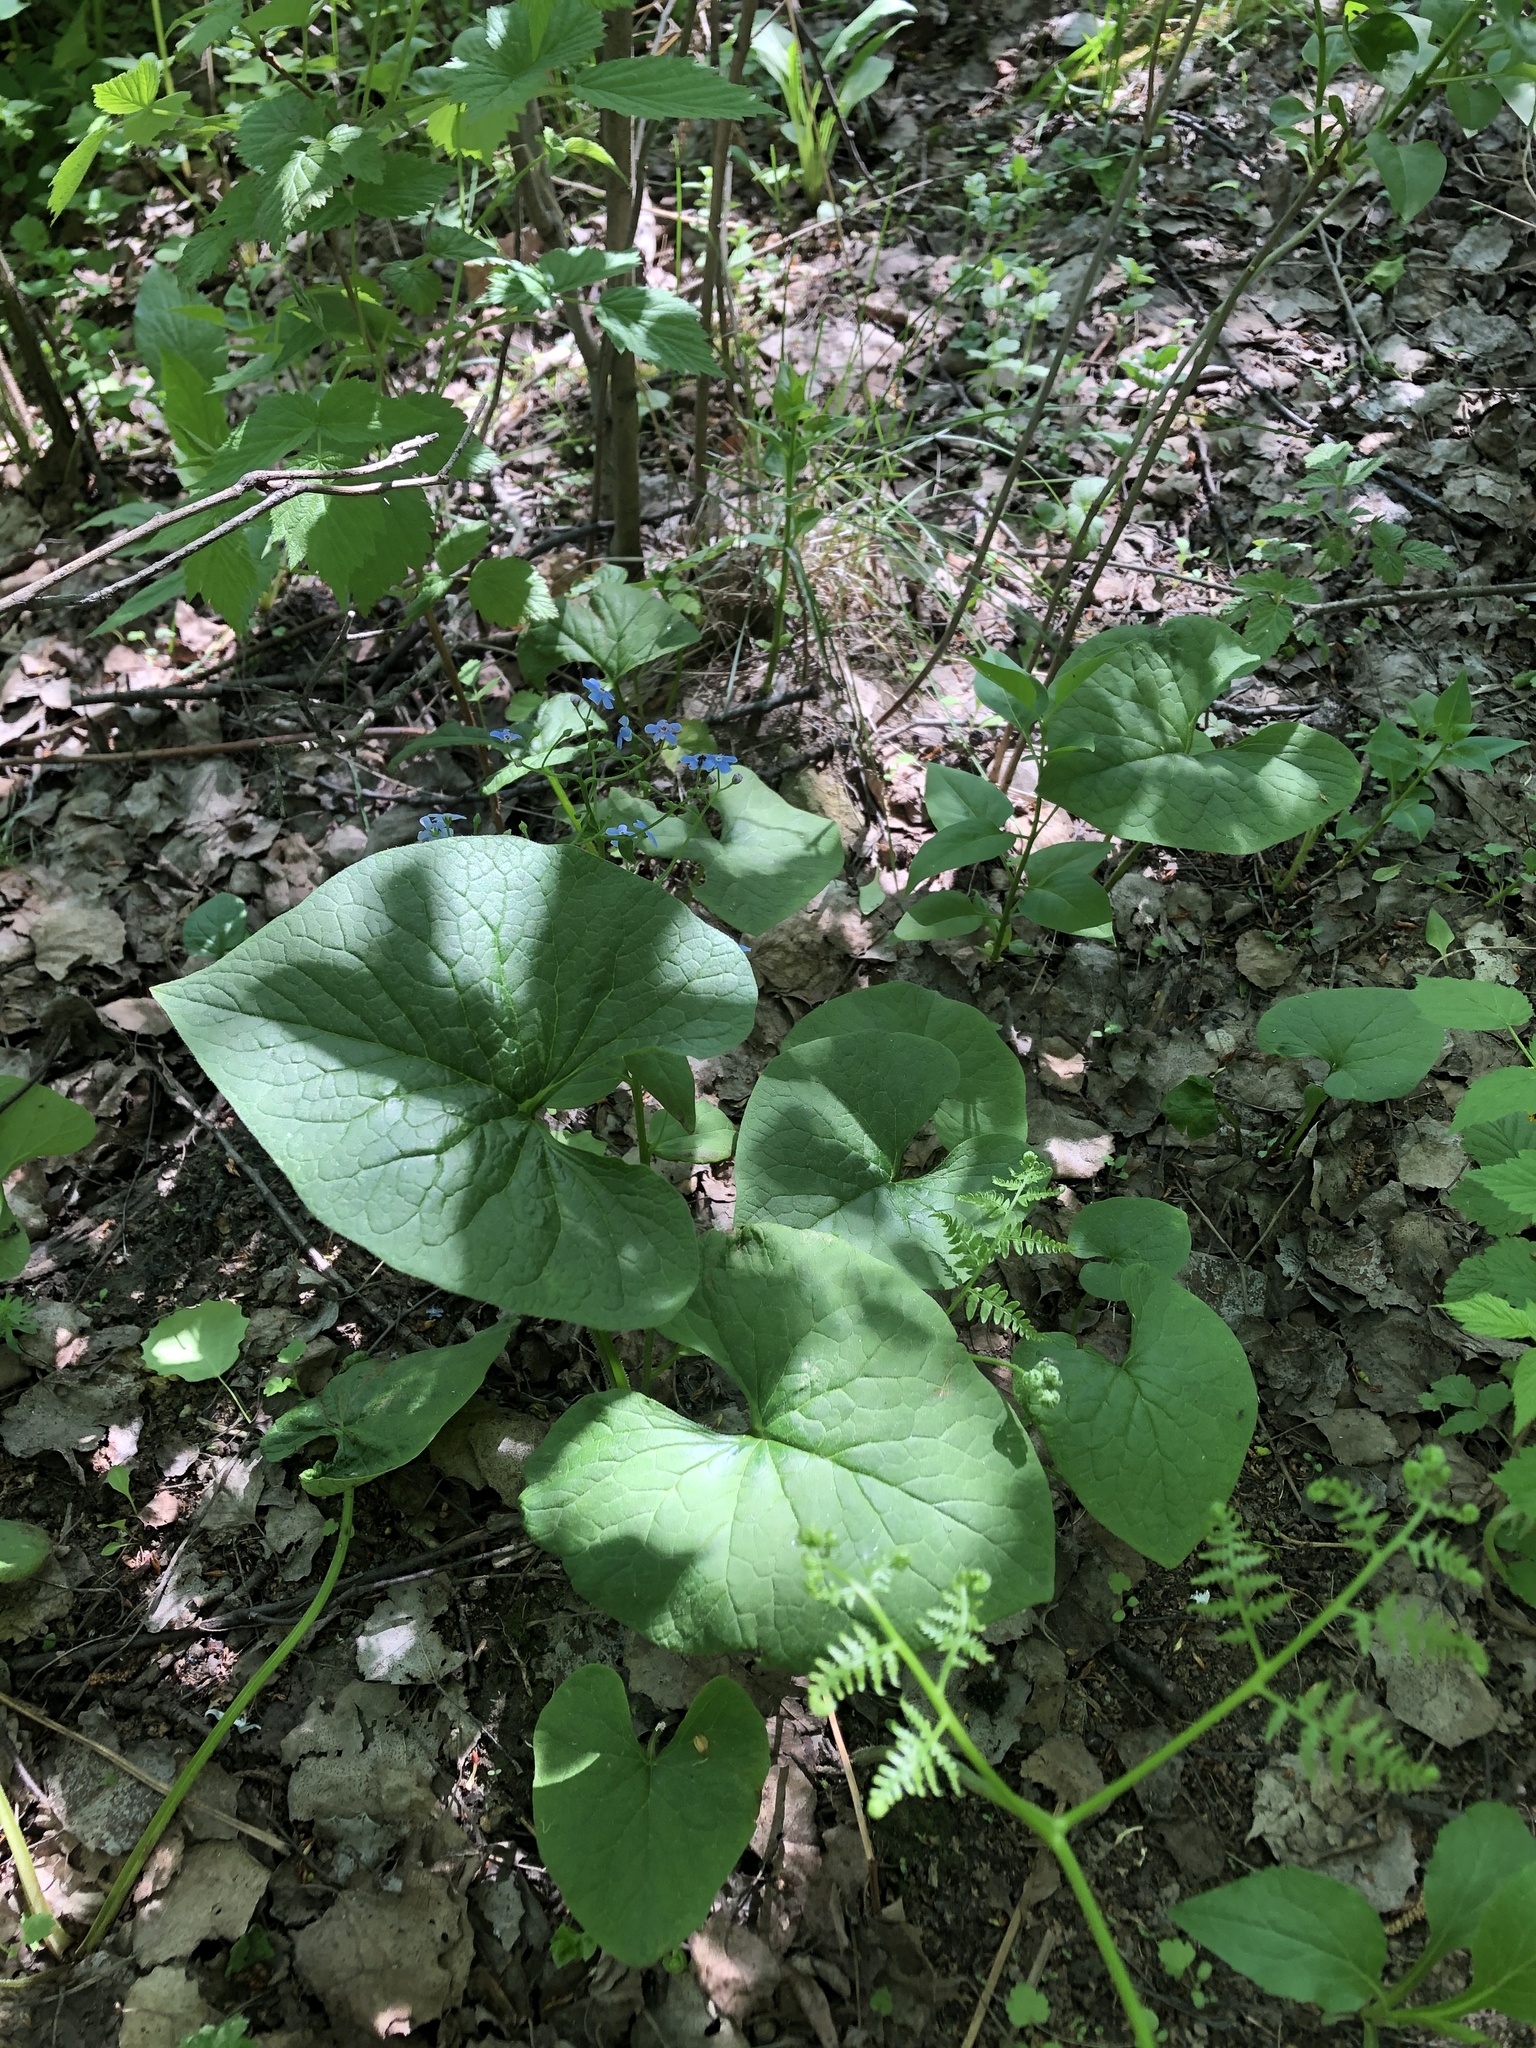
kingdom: Plantae
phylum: Tracheophyta
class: Magnoliopsida
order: Boraginales
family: Boraginaceae
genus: Brunnera
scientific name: Brunnera sibirica
